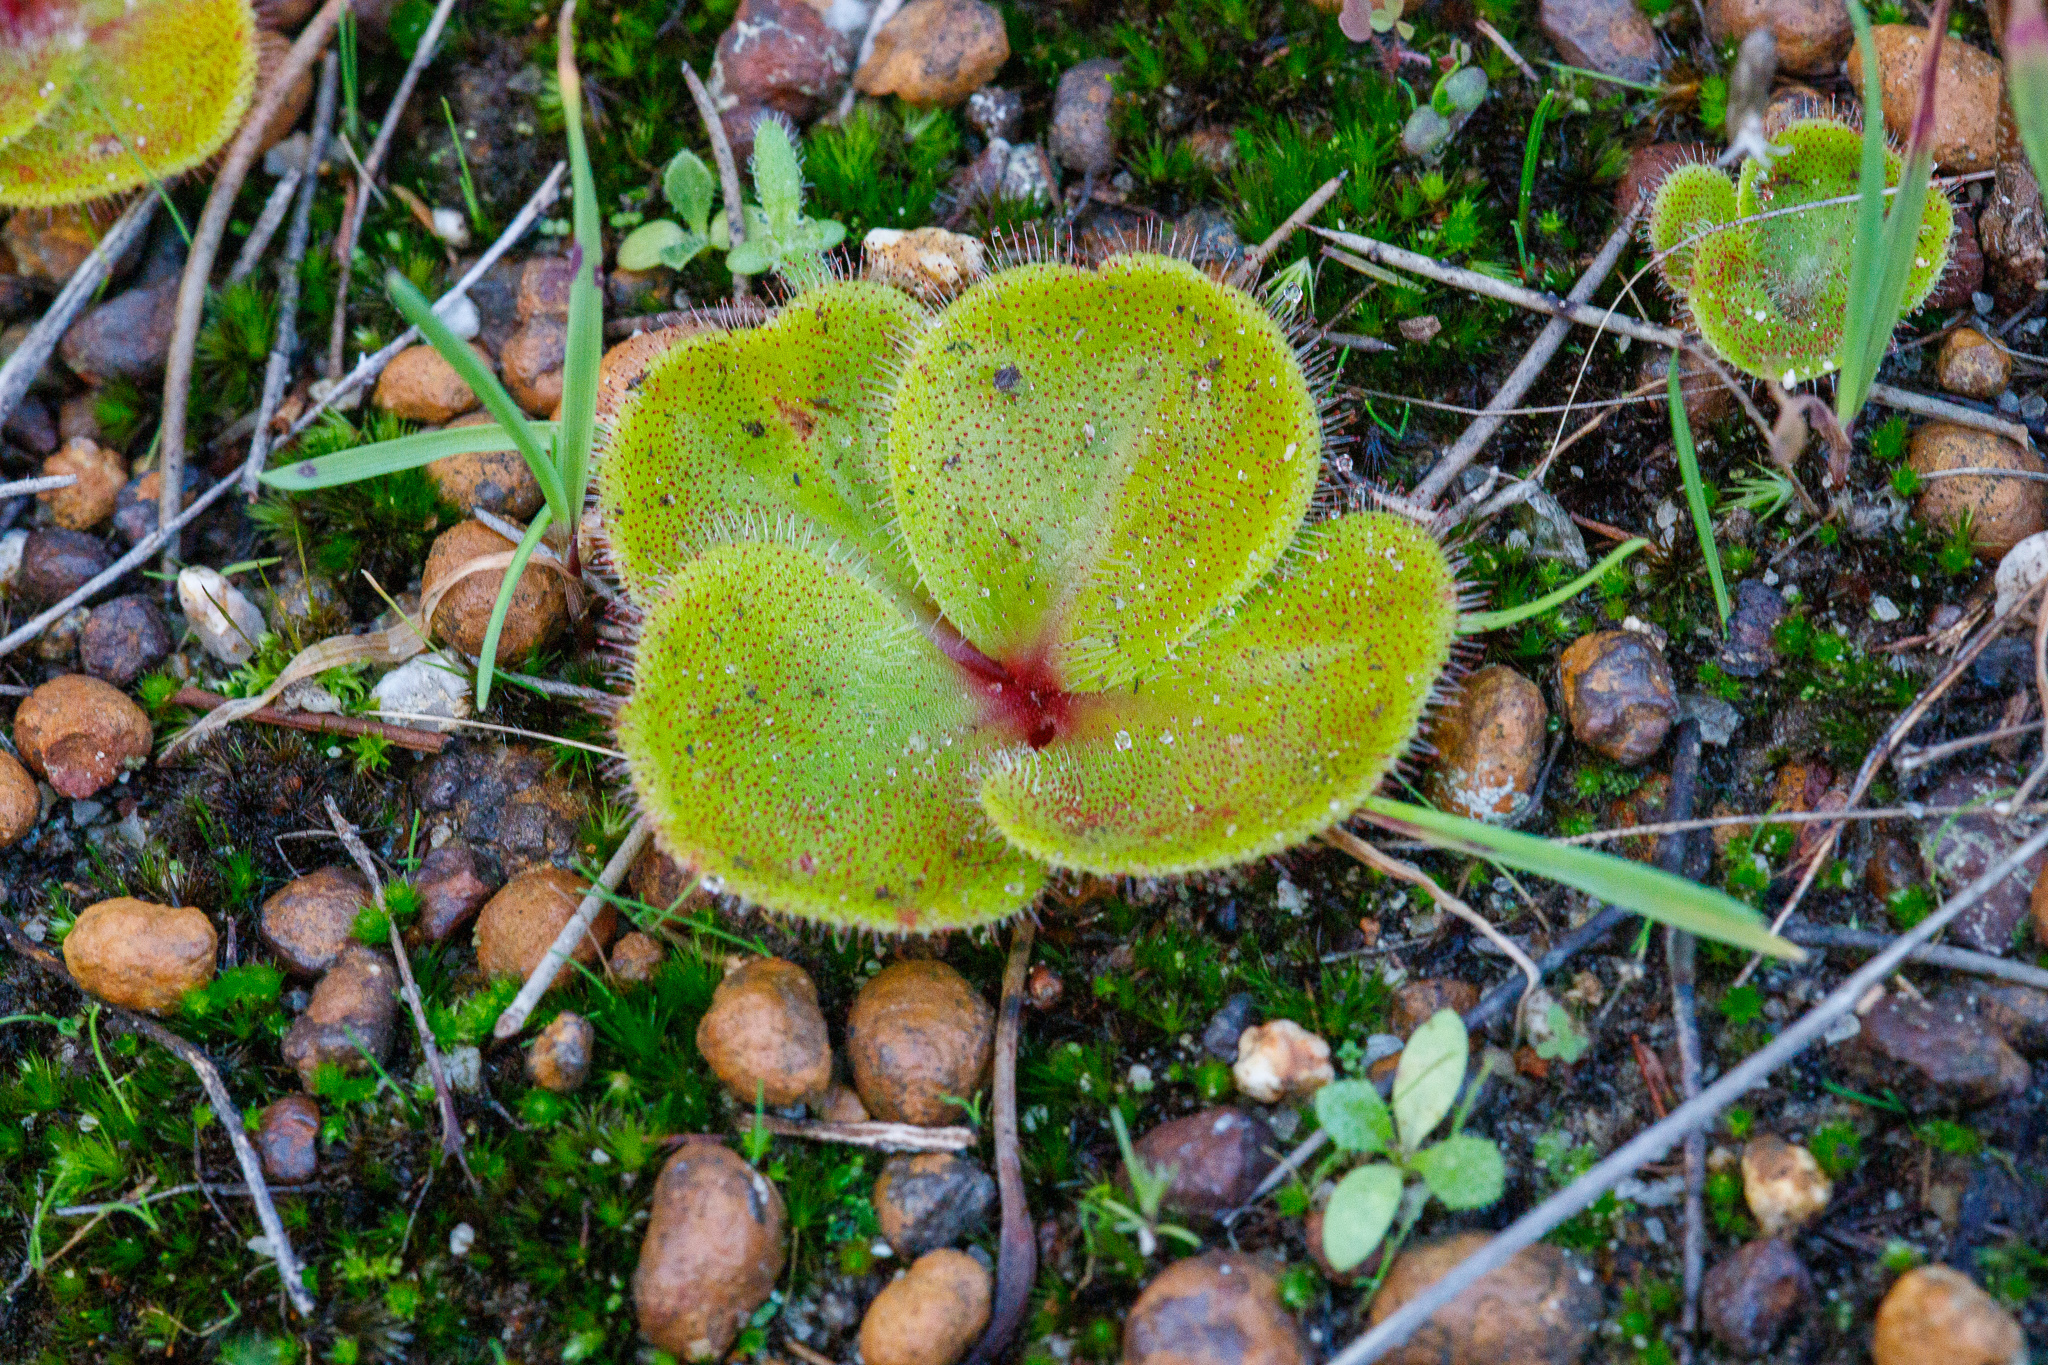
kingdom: Plantae
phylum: Tracheophyta
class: Magnoliopsida
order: Caryophyllales
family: Droseraceae
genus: Drosera
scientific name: Drosera erythrorhiza
